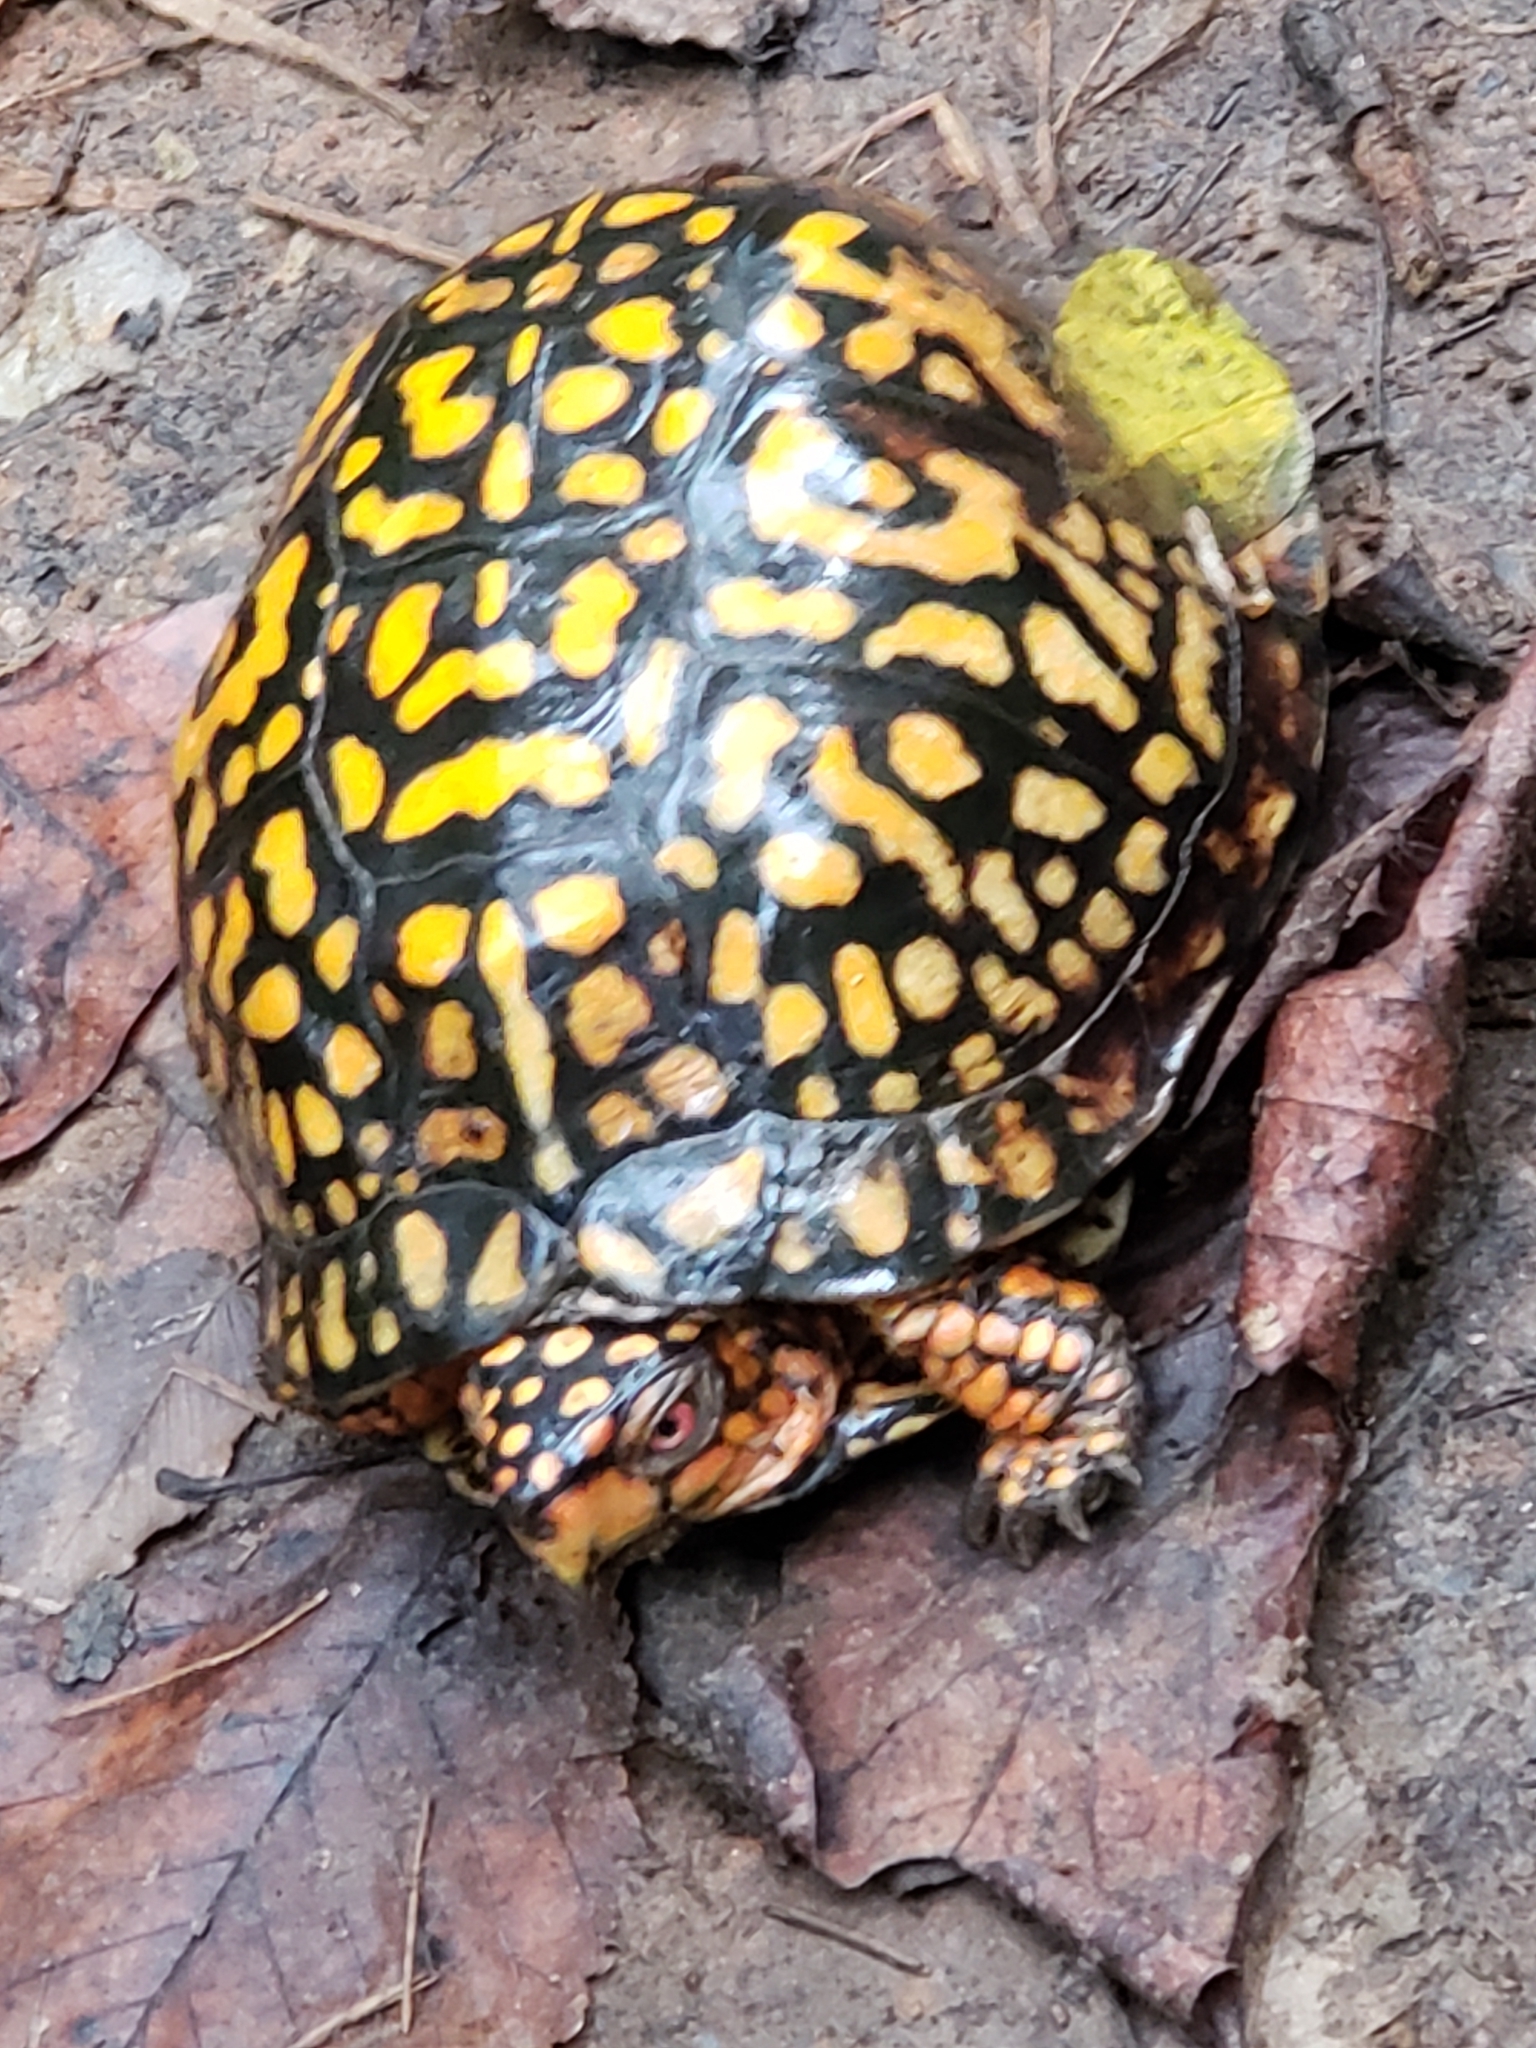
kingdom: Animalia
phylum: Chordata
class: Testudines
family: Emydidae
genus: Terrapene
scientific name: Terrapene carolina
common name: Common box turtle
